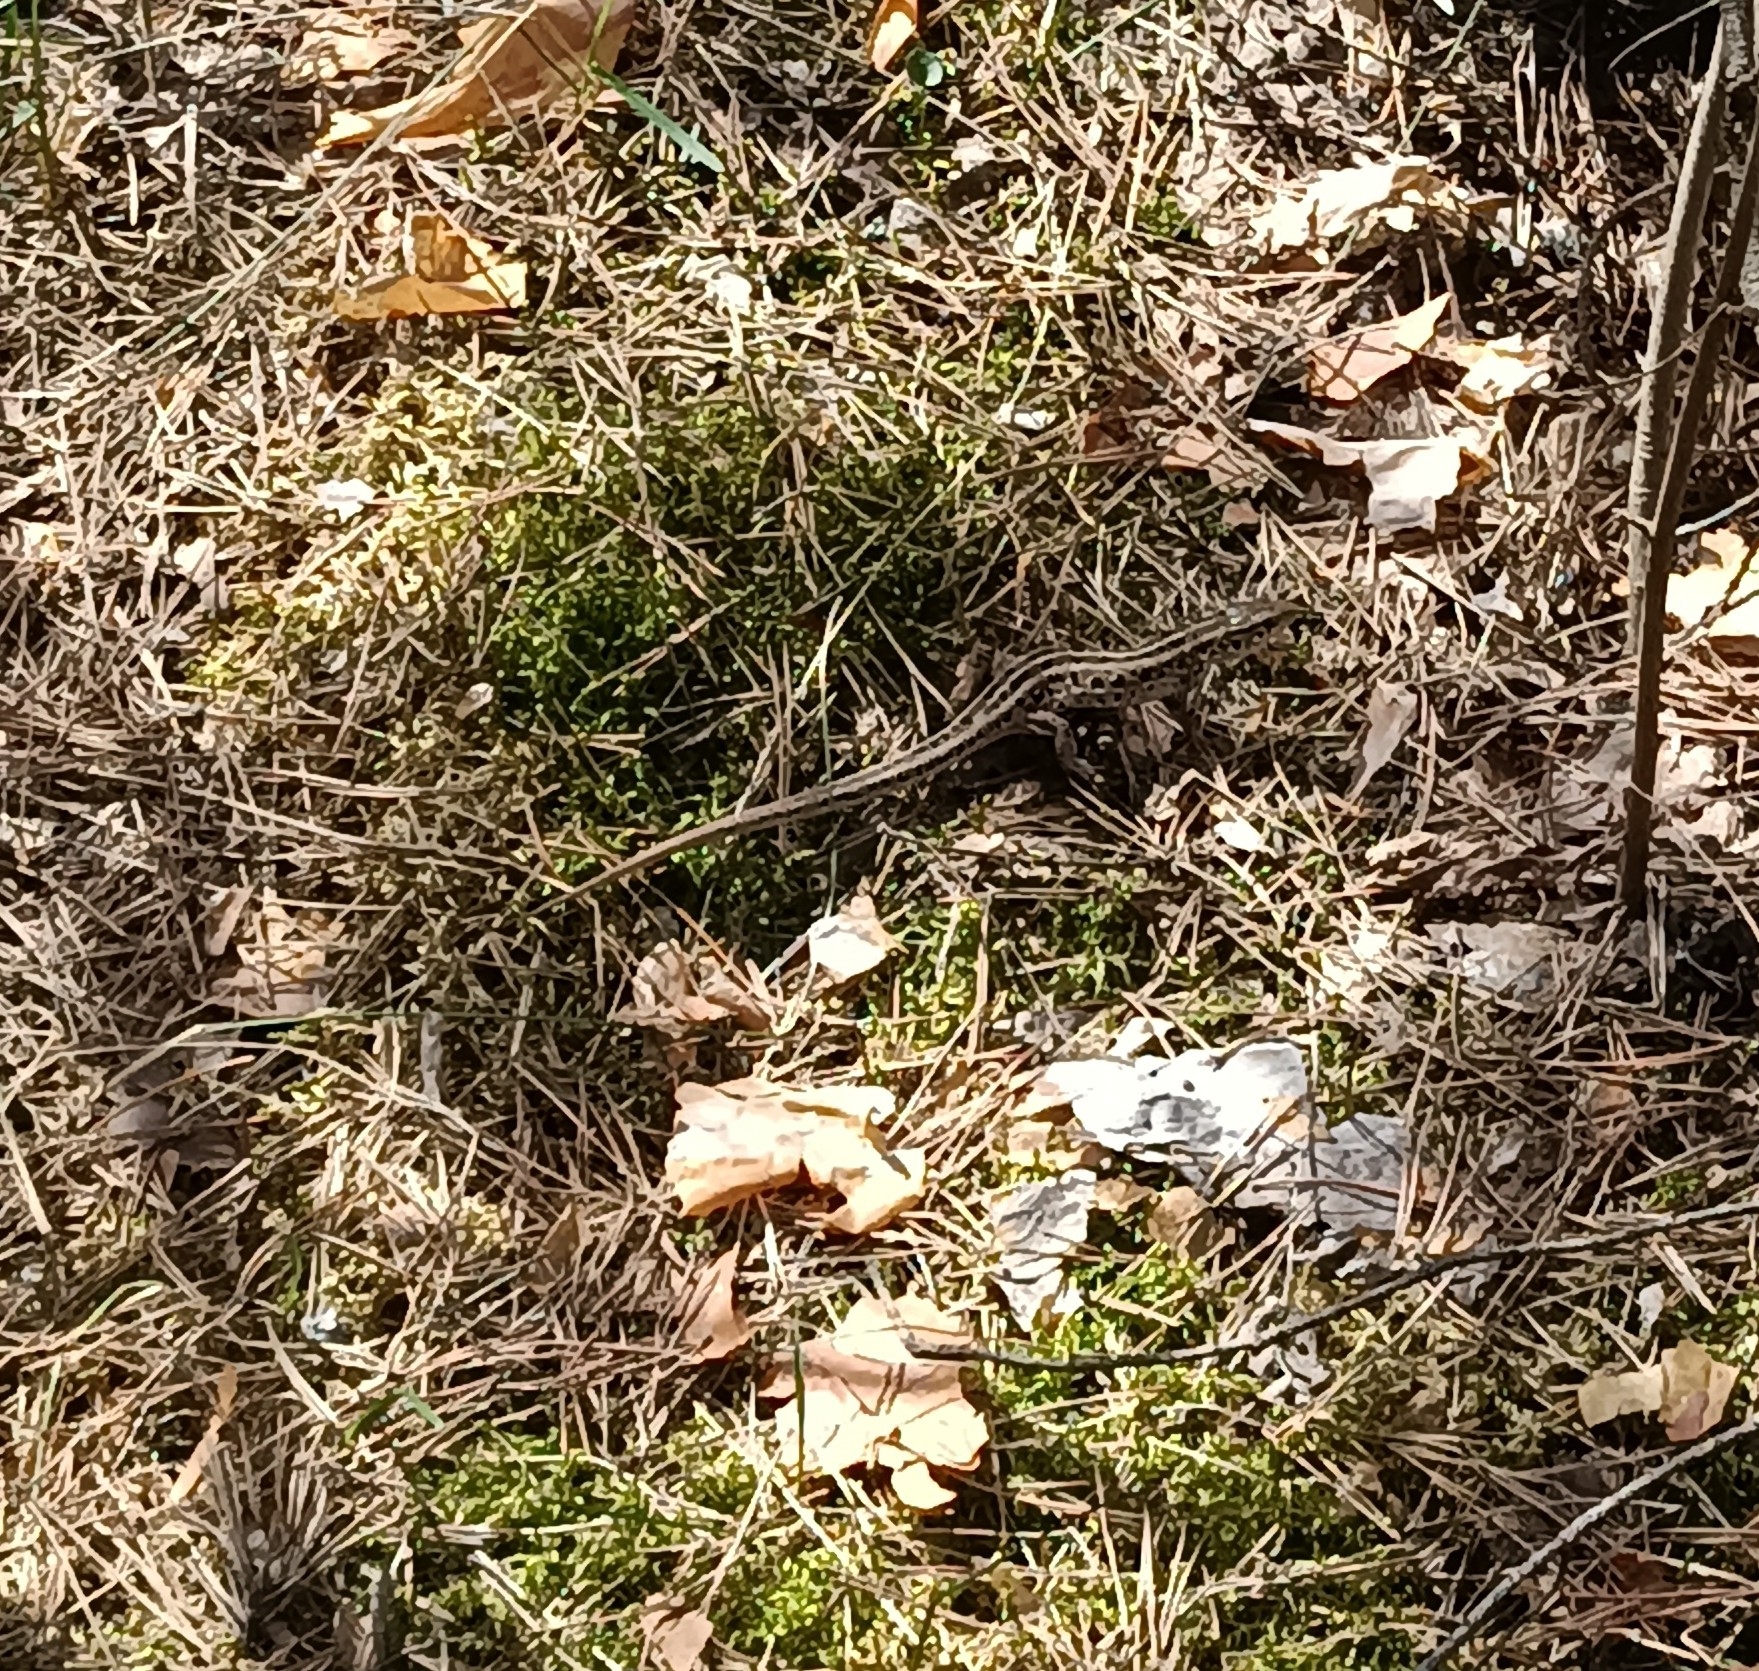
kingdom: Animalia
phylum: Chordata
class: Squamata
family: Lacertidae
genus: Lacerta
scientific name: Lacerta agilis
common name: Sand lizard
